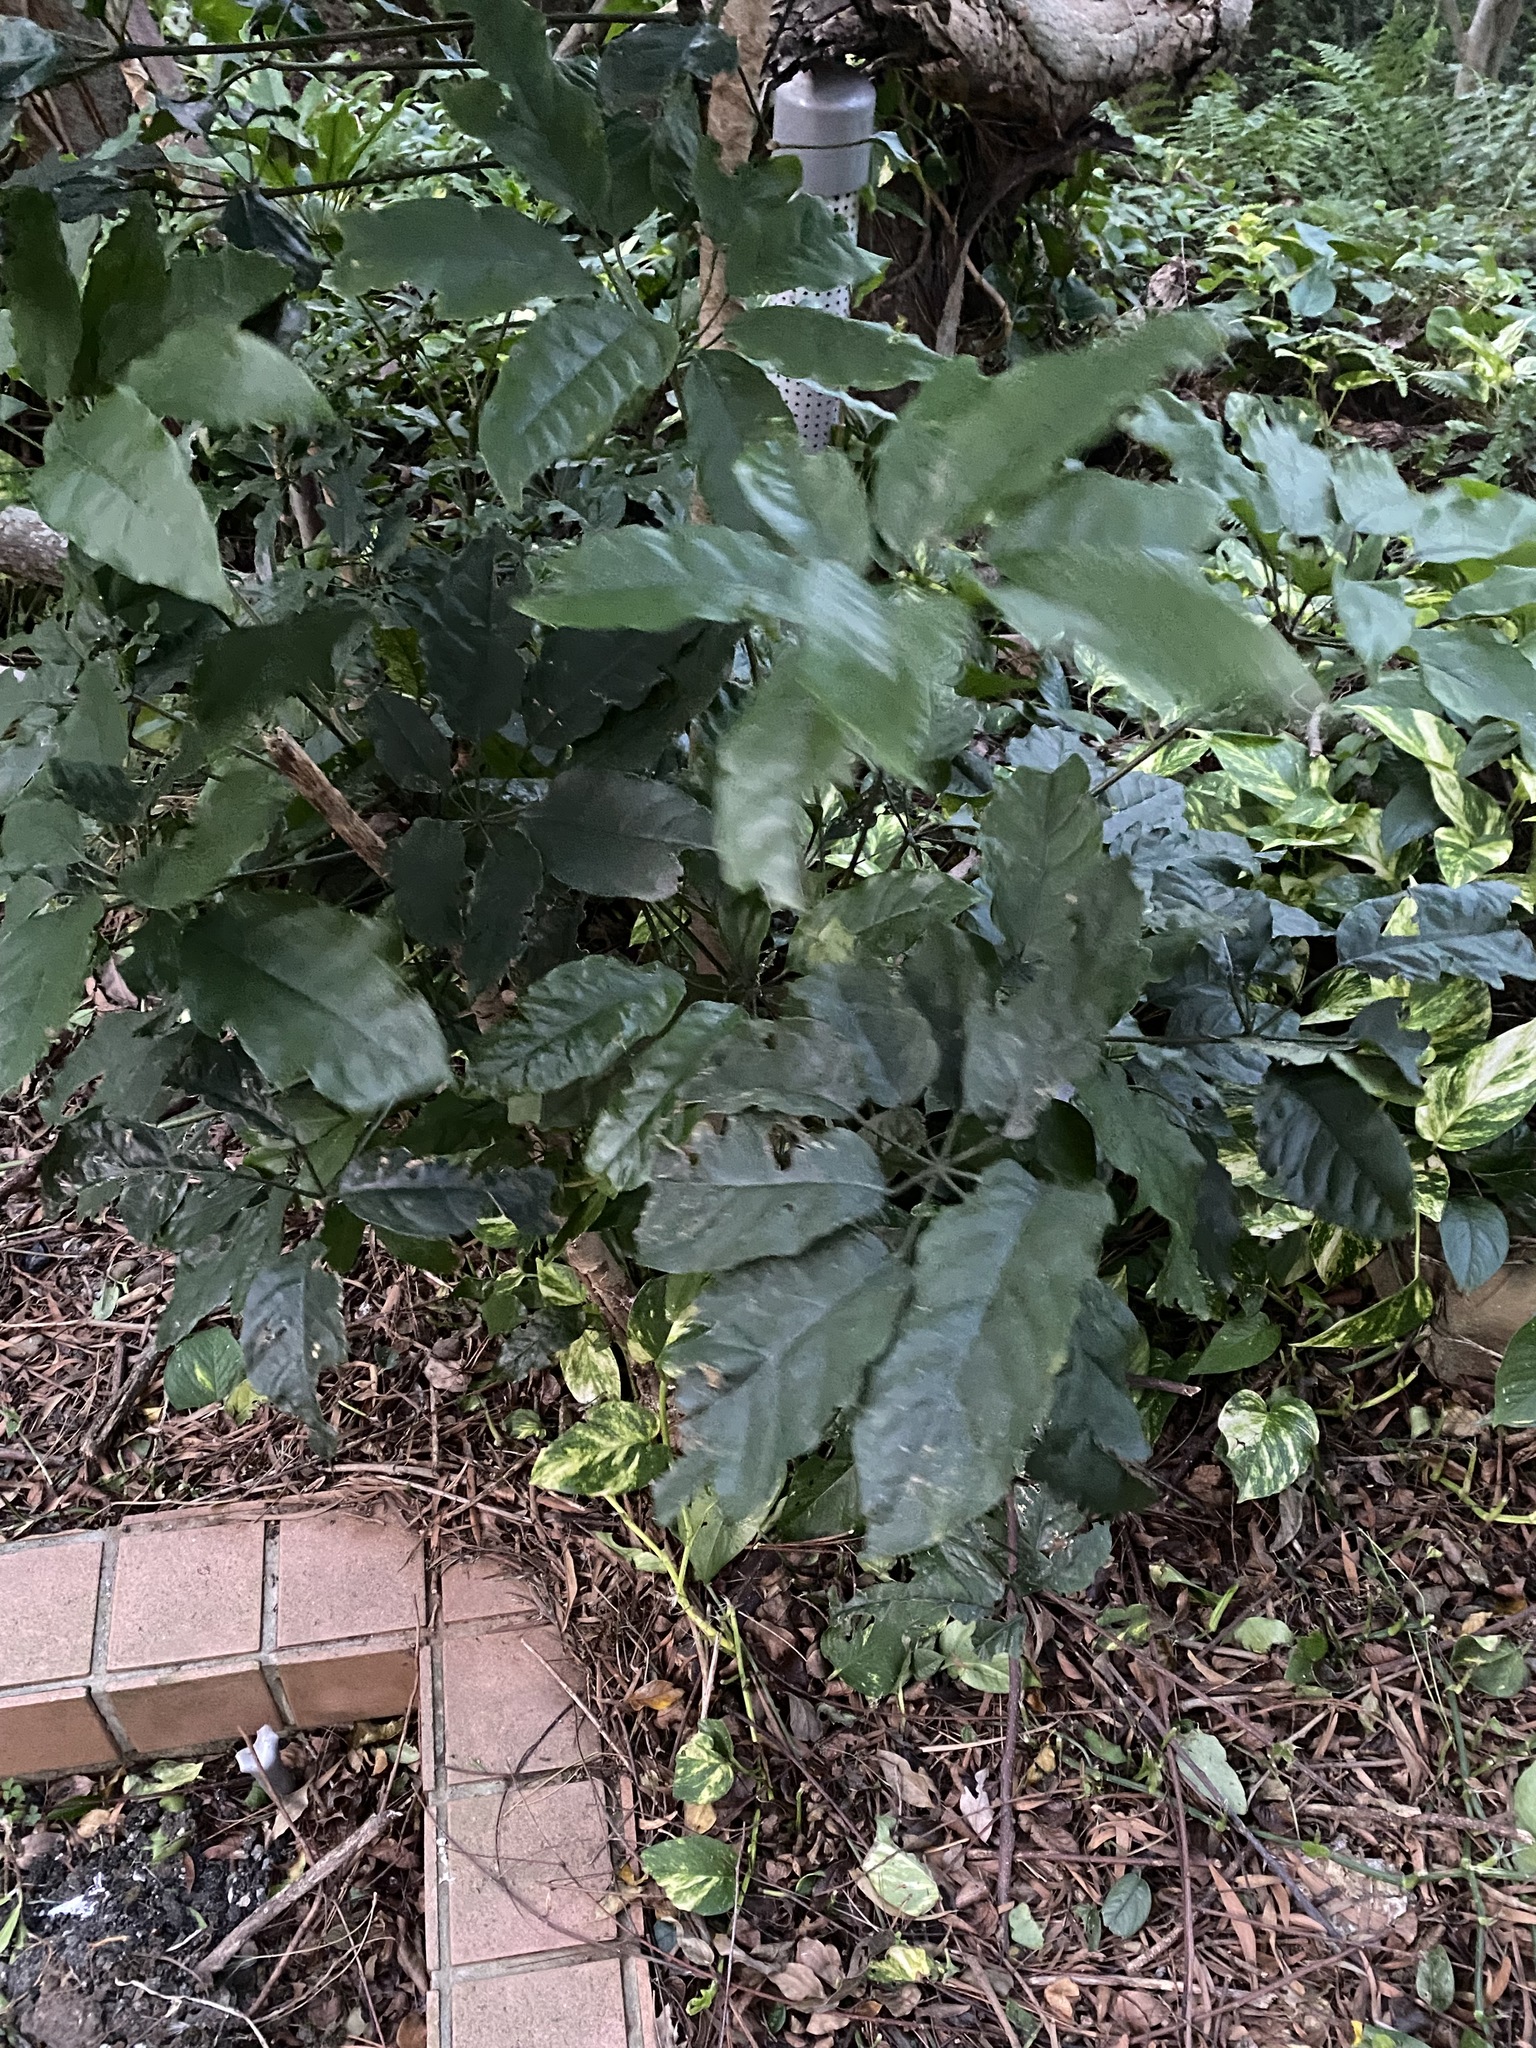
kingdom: Plantae
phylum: Tracheophyta
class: Magnoliopsida
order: Apiales
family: Araliaceae
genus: Heptapleurum
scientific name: Heptapleurum heptaphyllum
